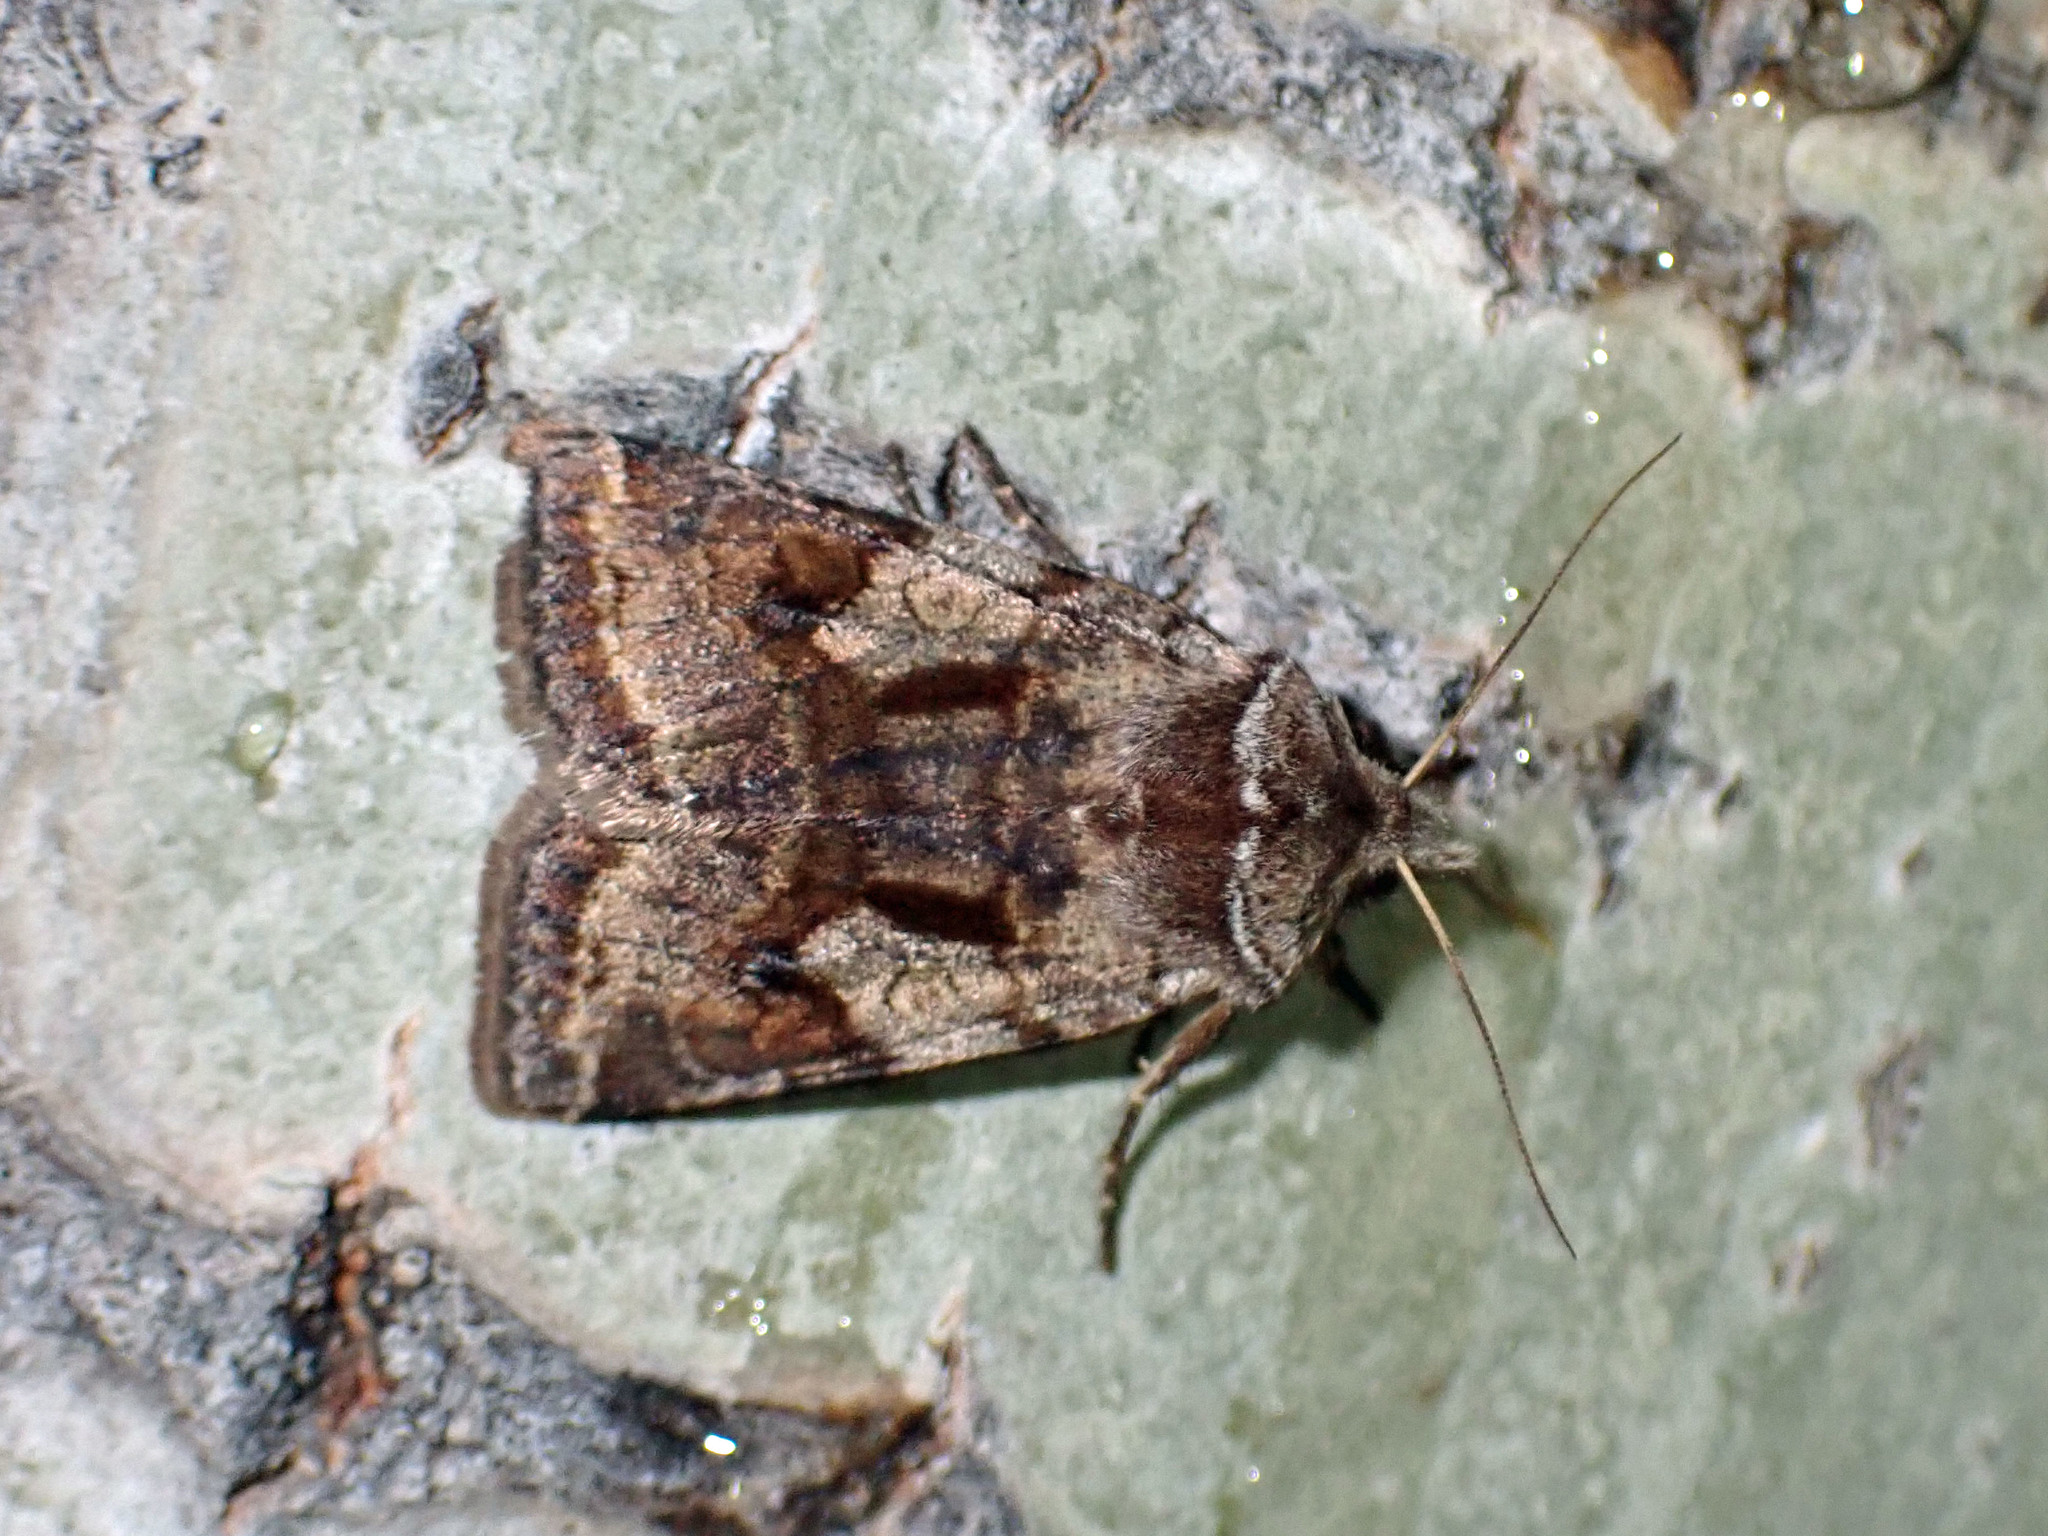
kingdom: Animalia
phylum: Arthropoda
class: Insecta
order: Lepidoptera
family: Noctuidae
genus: Cerastis
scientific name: Cerastis salicarum
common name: Willow dart
